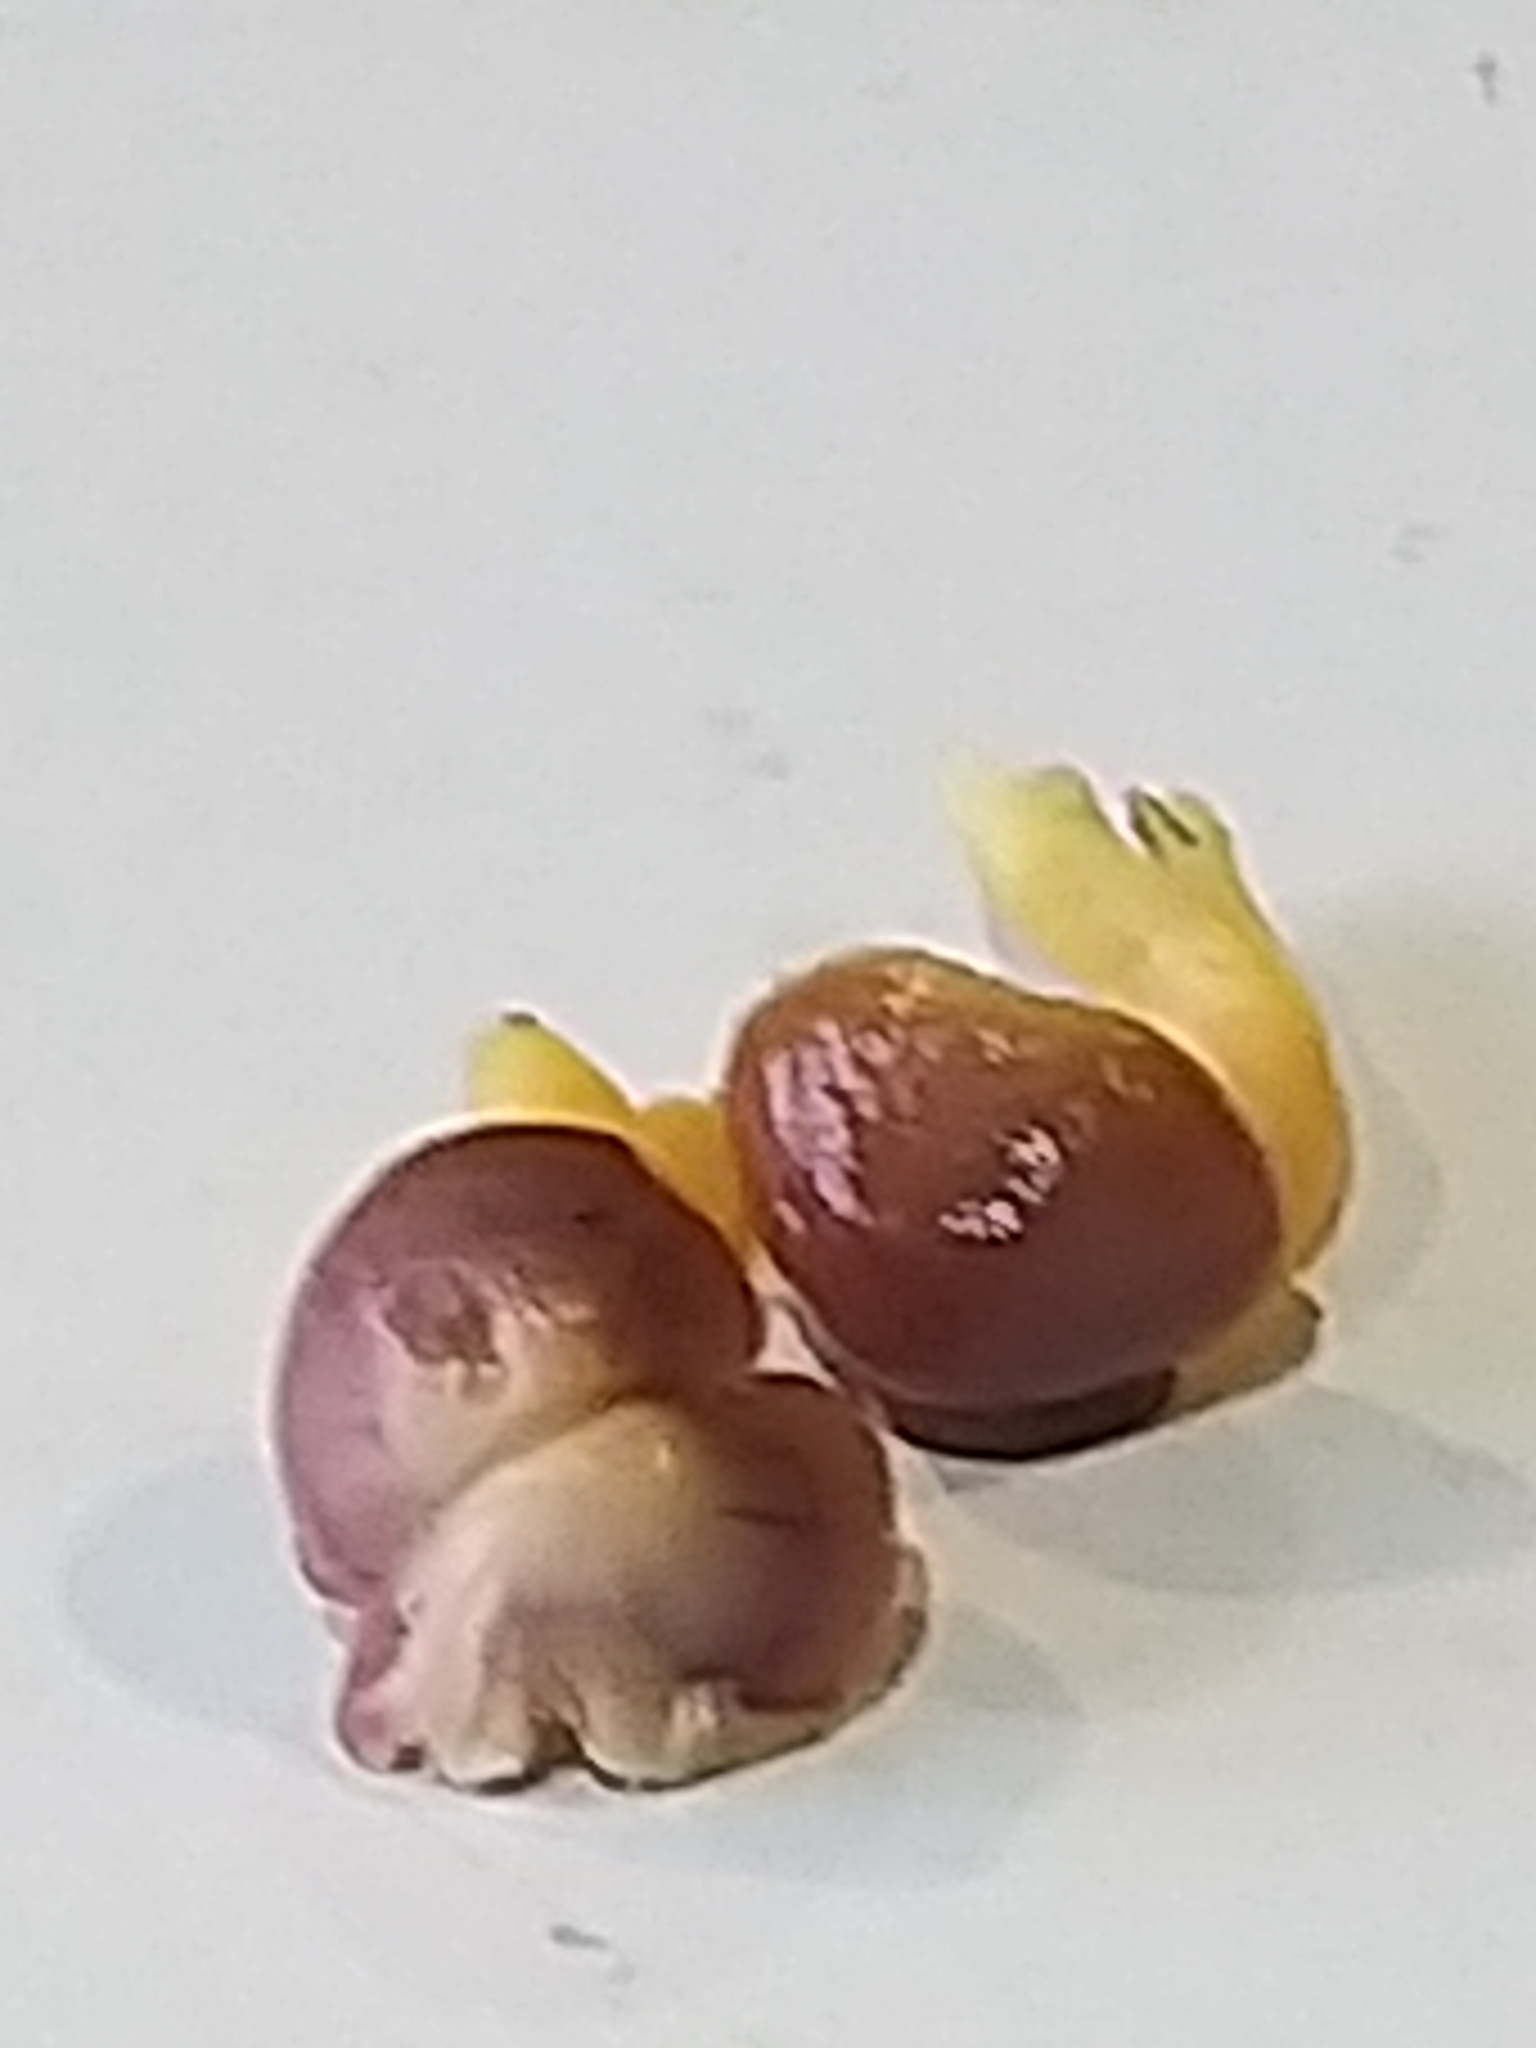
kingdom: Fungi
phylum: Basidiomycota
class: Agaricomycetes
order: Agaricales
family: Hygrophoraceae
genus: Gliophorus
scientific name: Gliophorus reginae
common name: Jubilee waxcap
